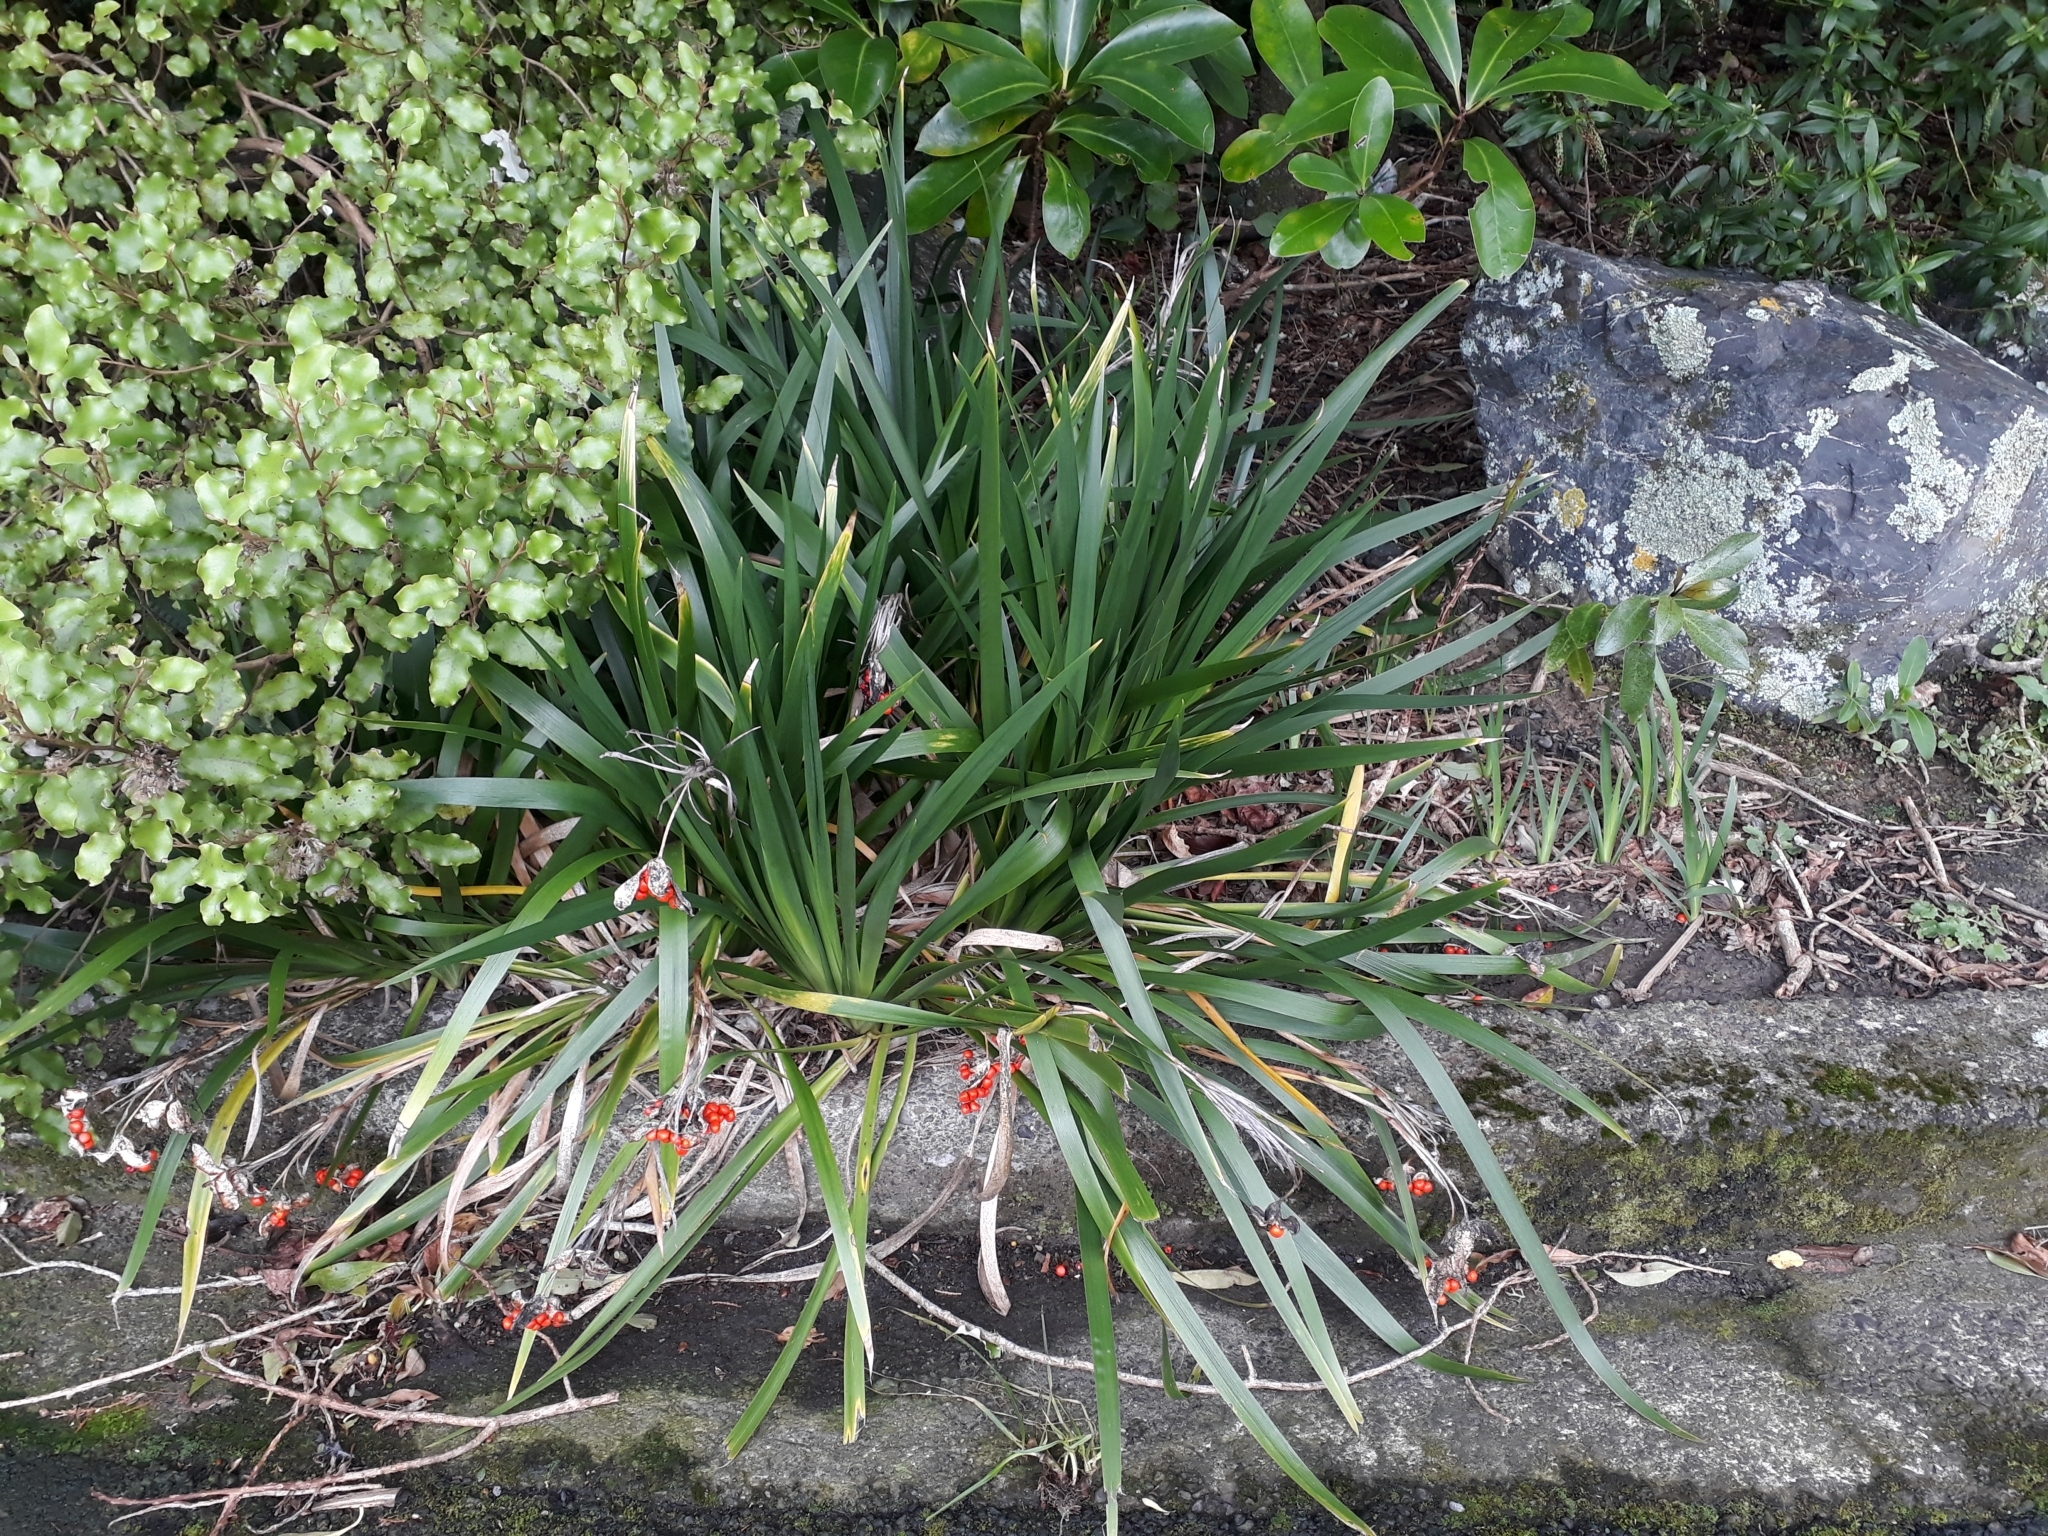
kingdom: Plantae
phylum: Tracheophyta
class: Liliopsida
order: Asparagales
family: Iridaceae
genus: Iris
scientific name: Iris foetidissima
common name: Stinking iris
